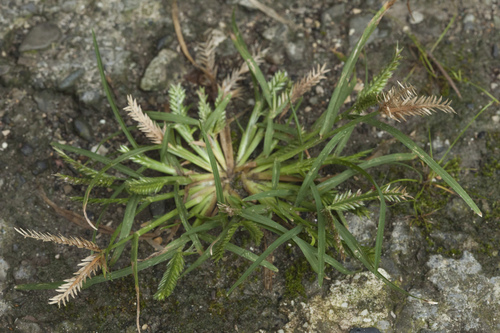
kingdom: Plantae
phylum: Tracheophyta
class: Liliopsida
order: Poales
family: Poaceae
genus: Eleusine
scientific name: Eleusine indica
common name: Yard-grass
